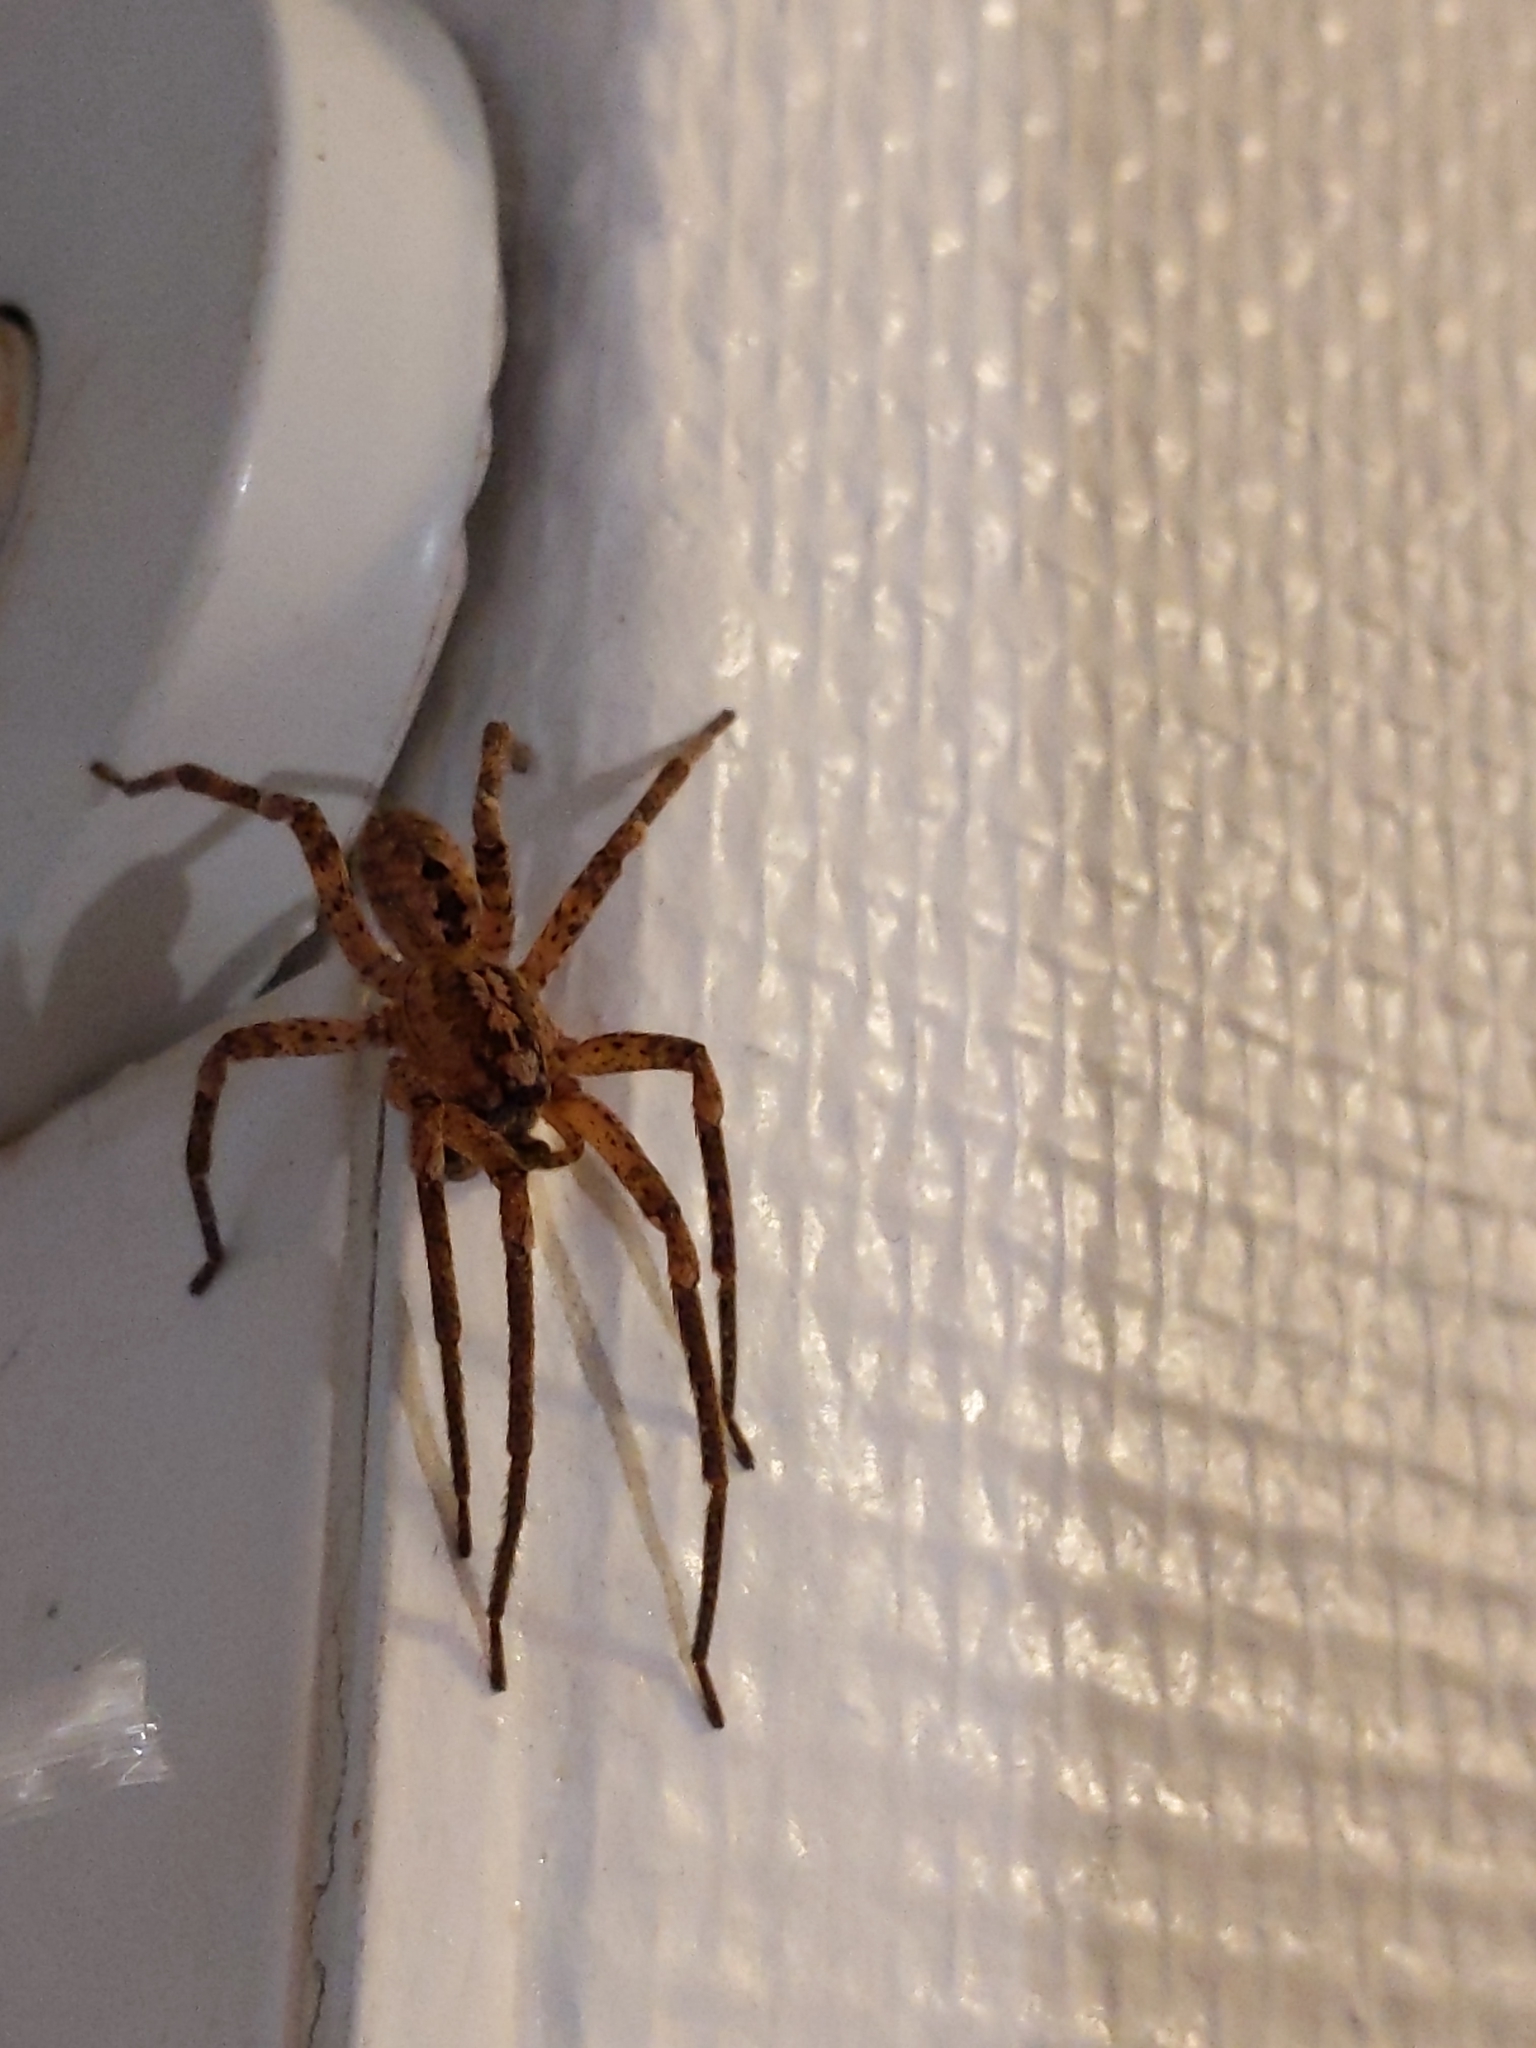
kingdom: Animalia
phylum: Arthropoda
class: Arachnida
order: Araneae
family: Zoropsidae
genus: Zoropsis
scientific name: Zoropsis spinimana
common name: Zoropsid spider
